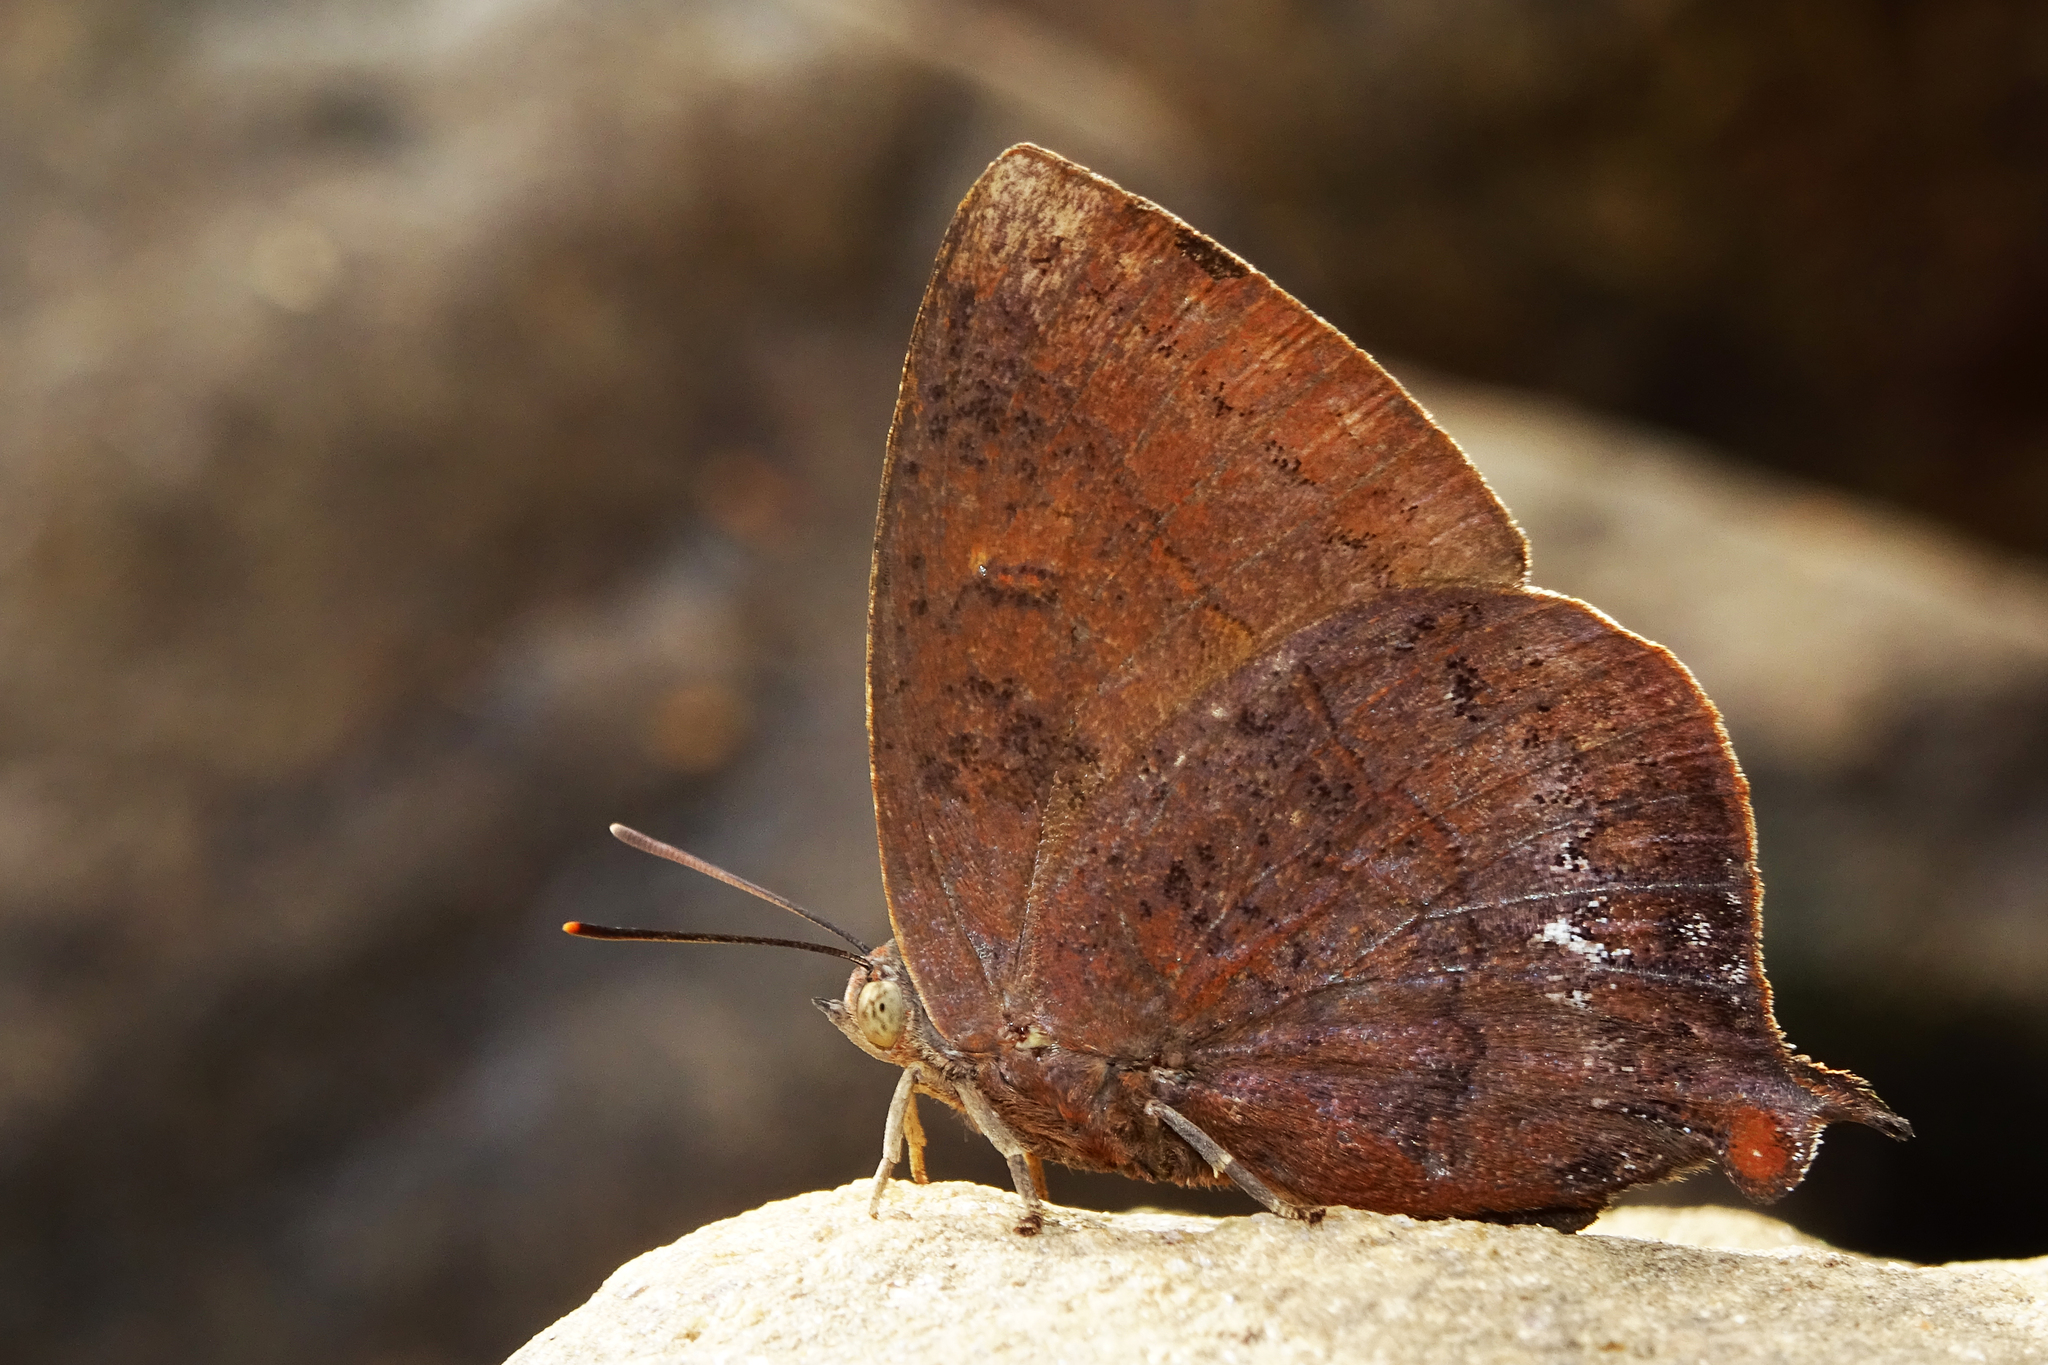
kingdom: Animalia
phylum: Arthropoda
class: Insecta
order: Lepidoptera
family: Lycaenidae
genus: Amblypodia
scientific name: Amblypodia anita
